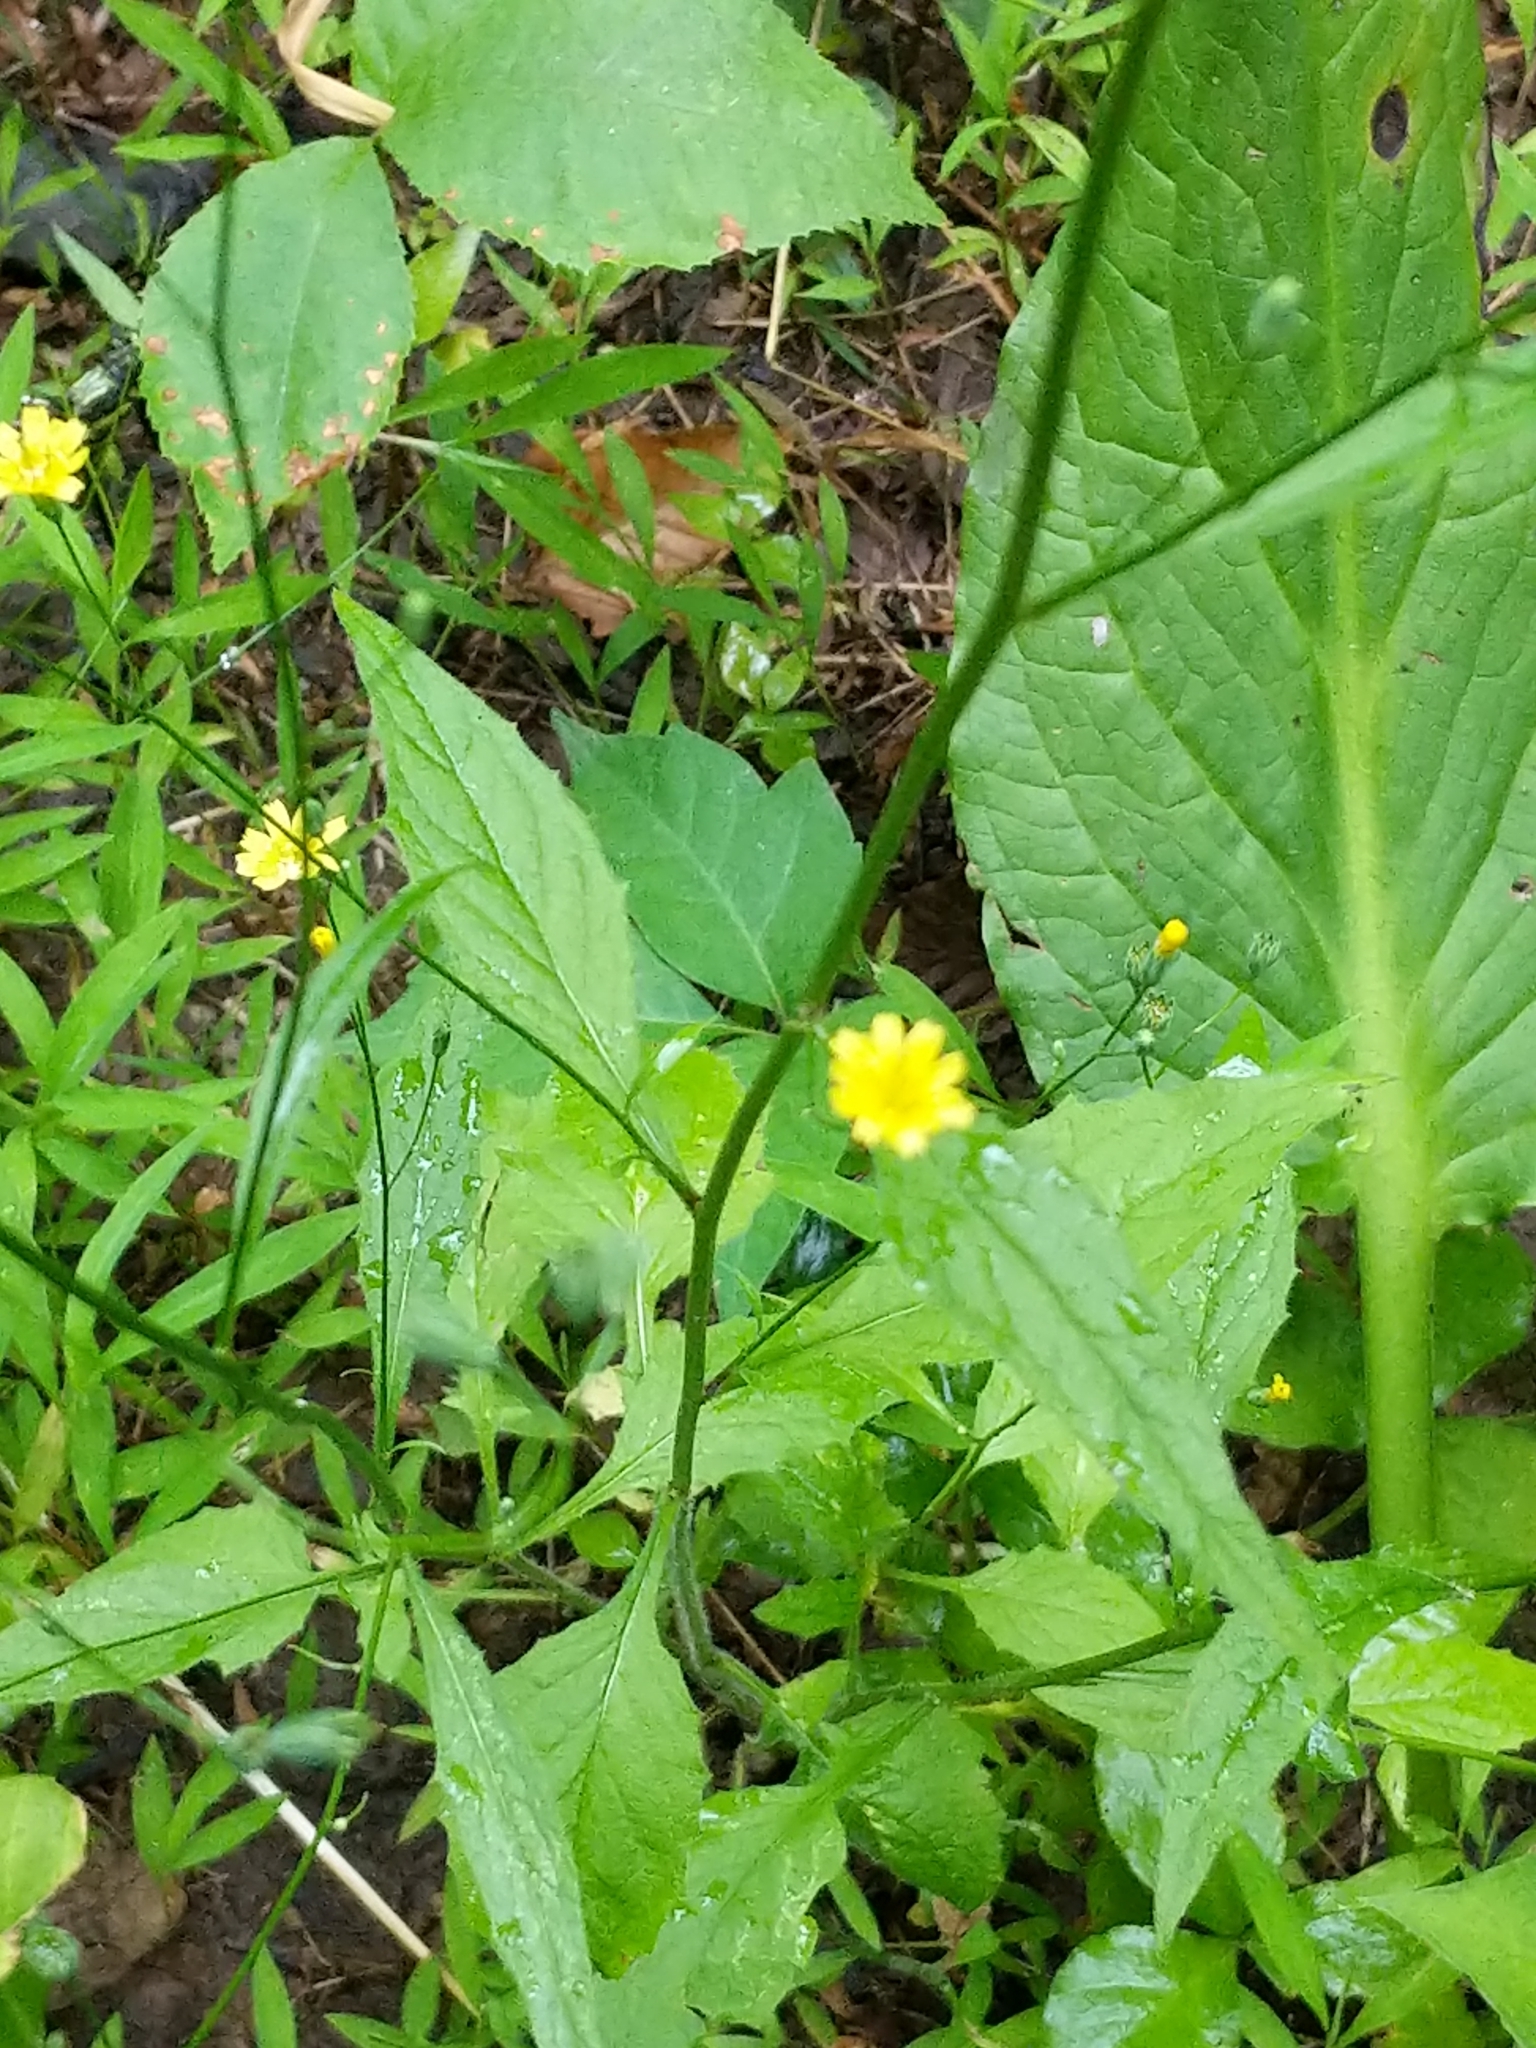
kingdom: Plantae
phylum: Tracheophyta
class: Magnoliopsida
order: Asterales
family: Asteraceae
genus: Lapsana
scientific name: Lapsana communis
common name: Nipplewort
